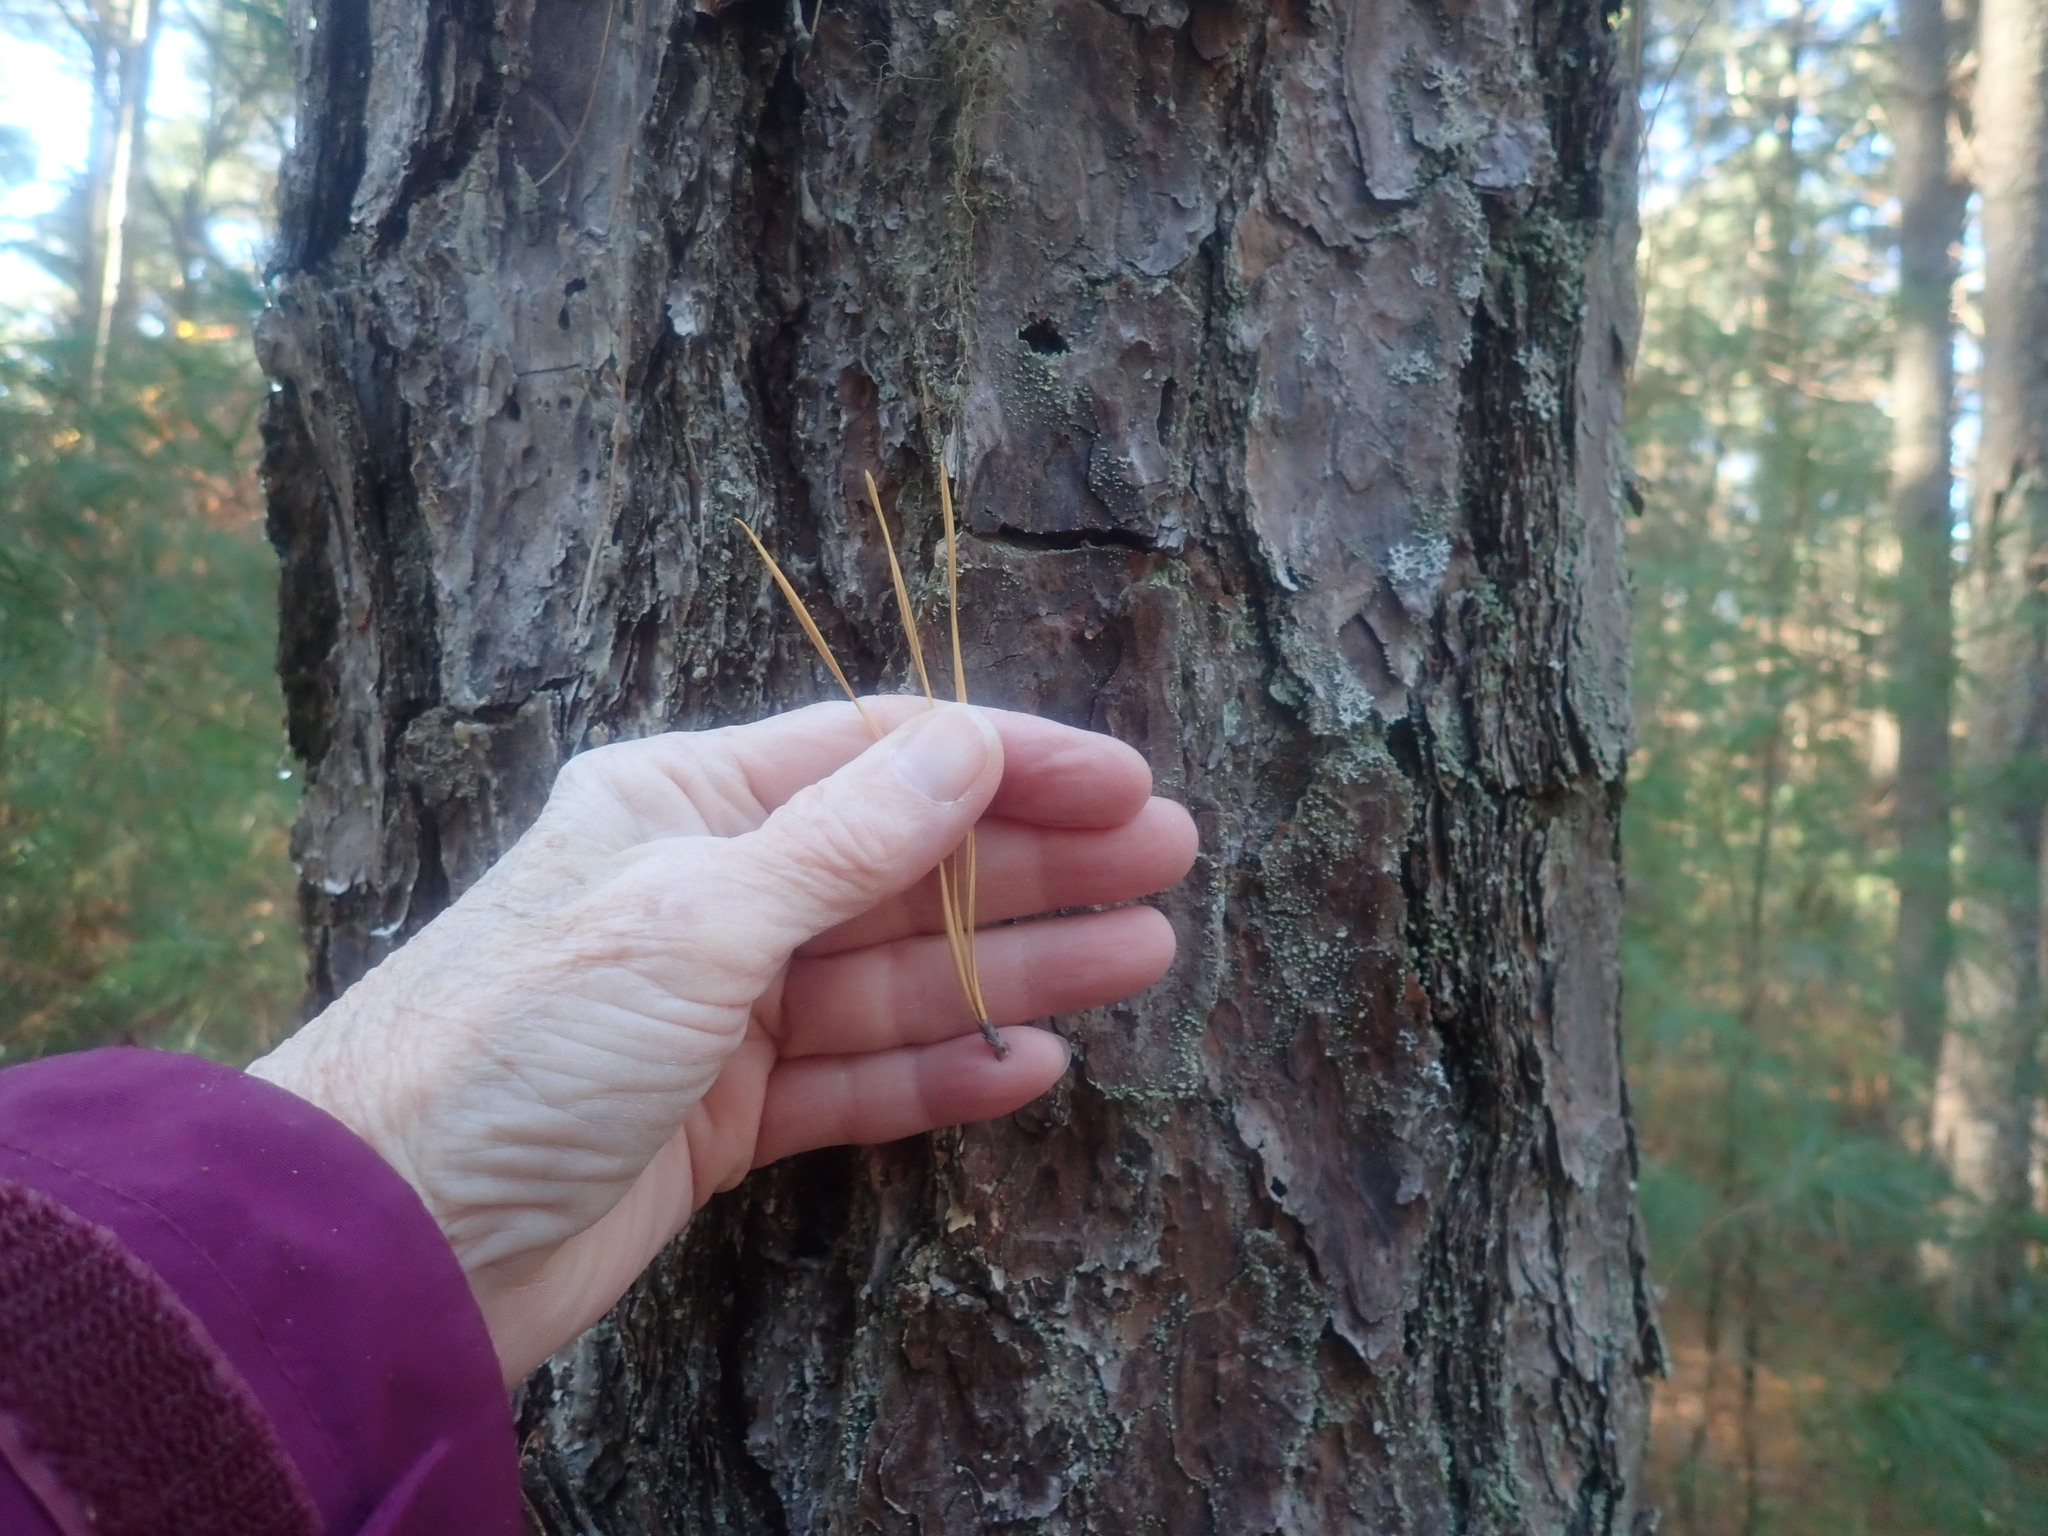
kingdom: Plantae
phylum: Tracheophyta
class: Pinopsida
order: Pinales
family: Pinaceae
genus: Pinus
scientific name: Pinus rigida
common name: Pitch pine
